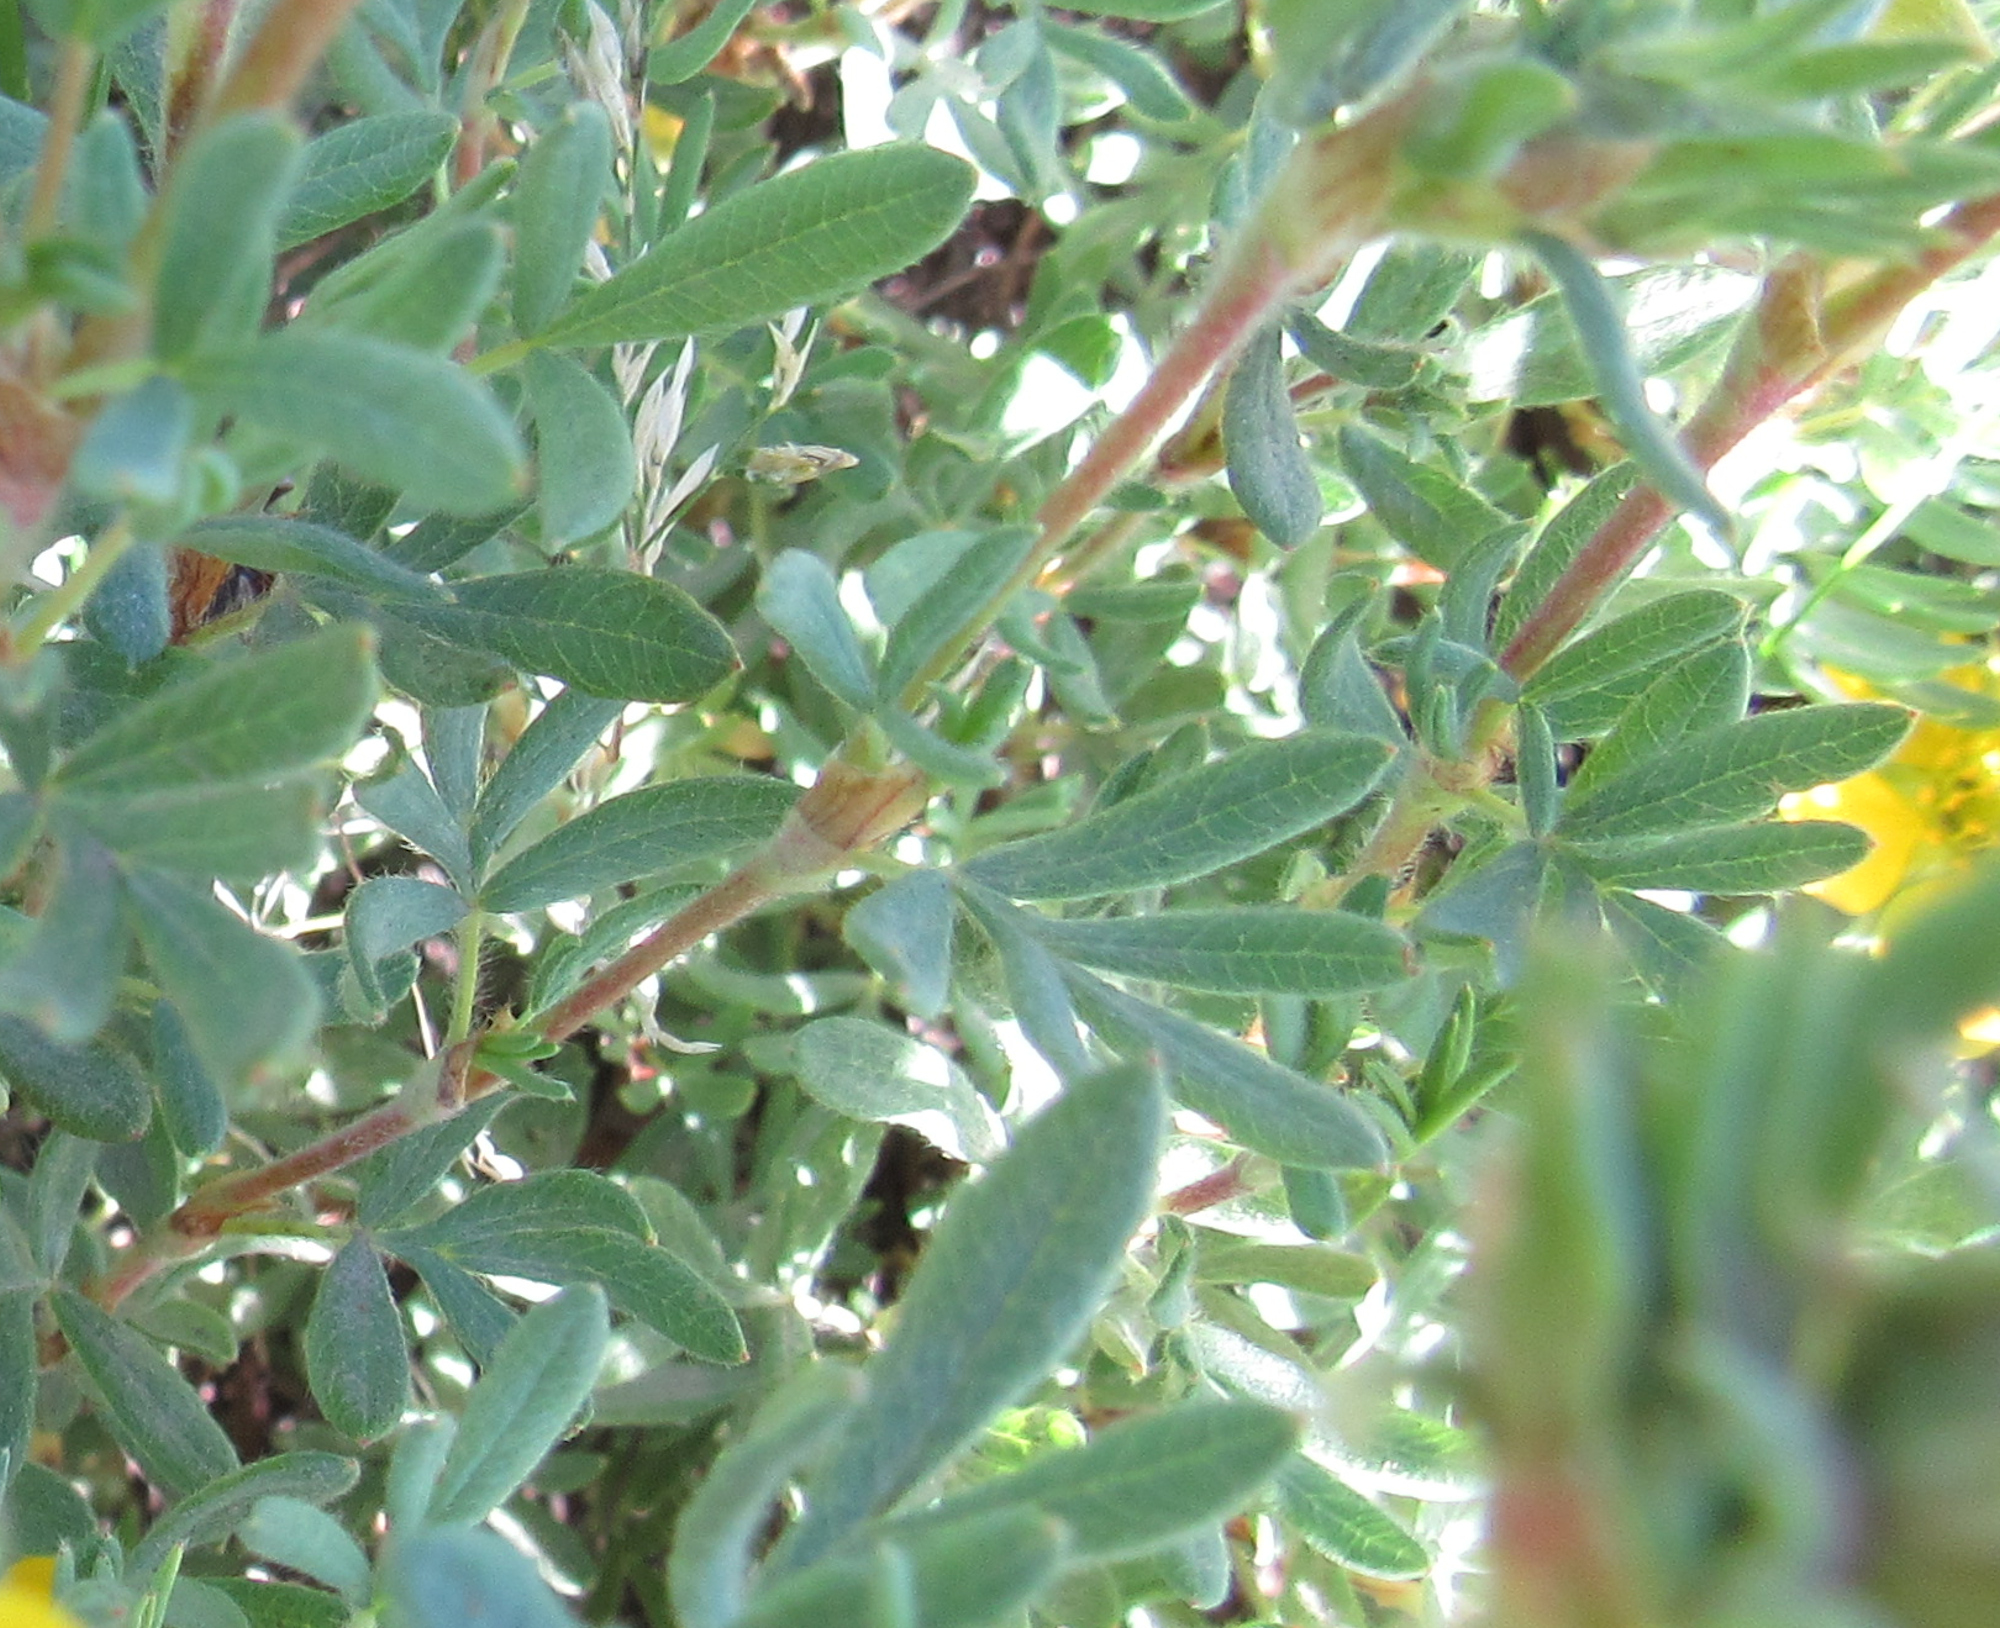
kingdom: Plantae
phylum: Tracheophyta
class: Magnoliopsida
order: Rosales
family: Rosaceae
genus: Dasiphora
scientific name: Dasiphora fruticosa
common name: Shrubby cinquefoil
